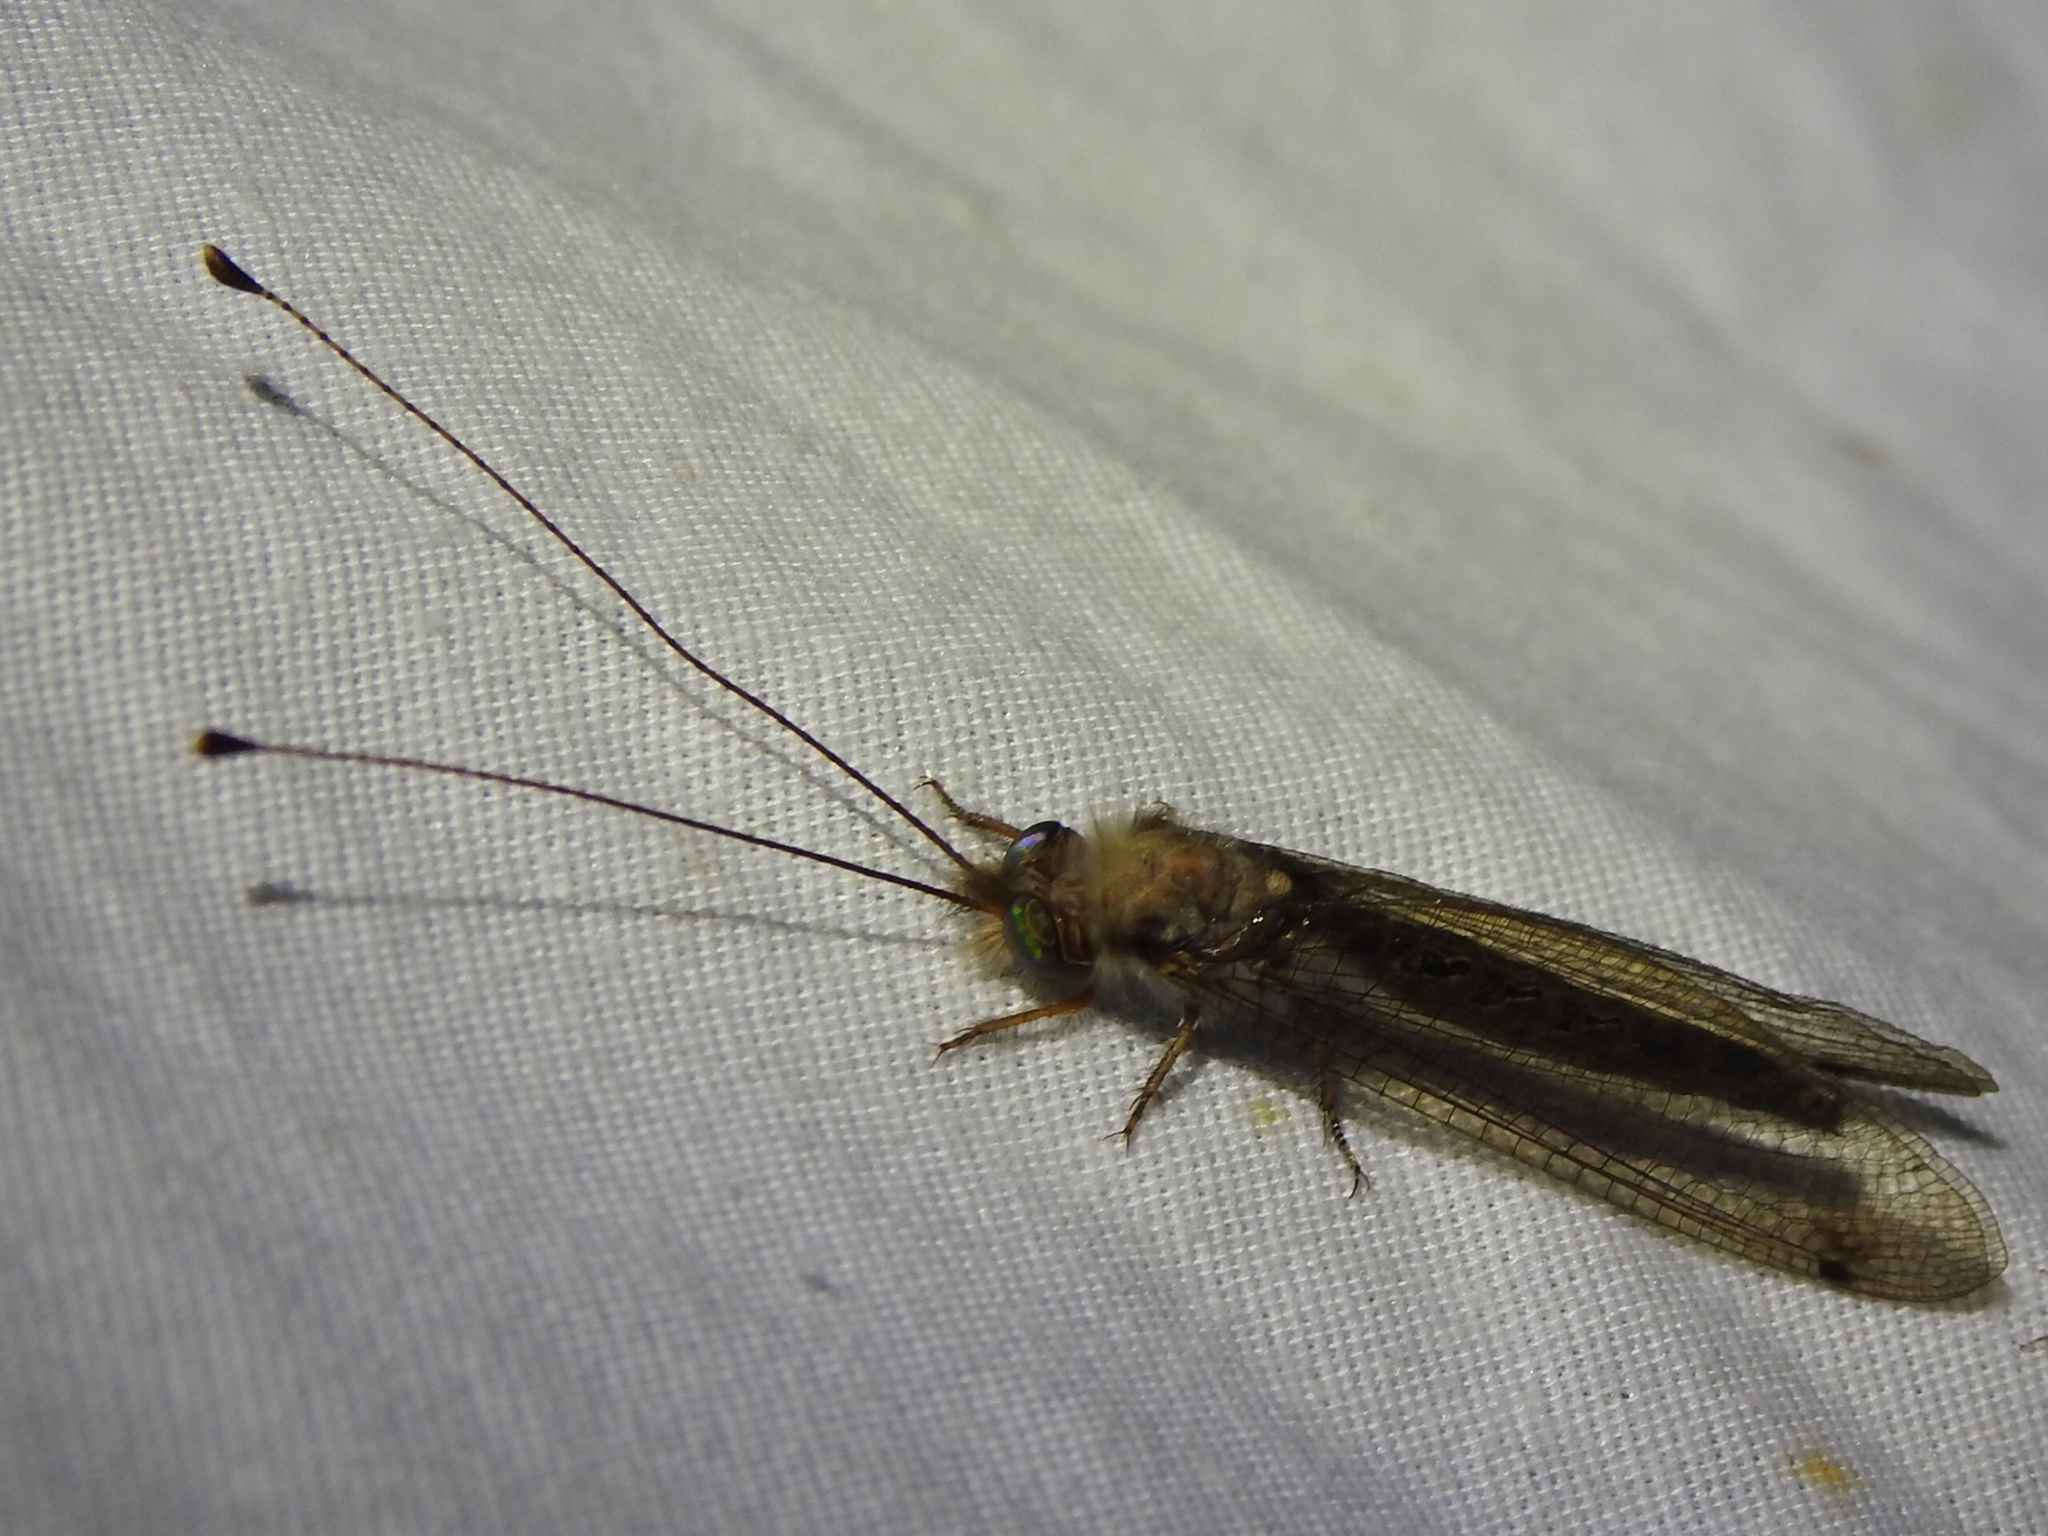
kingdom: Animalia
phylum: Arthropoda
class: Insecta
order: Neuroptera
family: Ascalaphidae
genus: Ululodes
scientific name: Ululodes macleayanus
